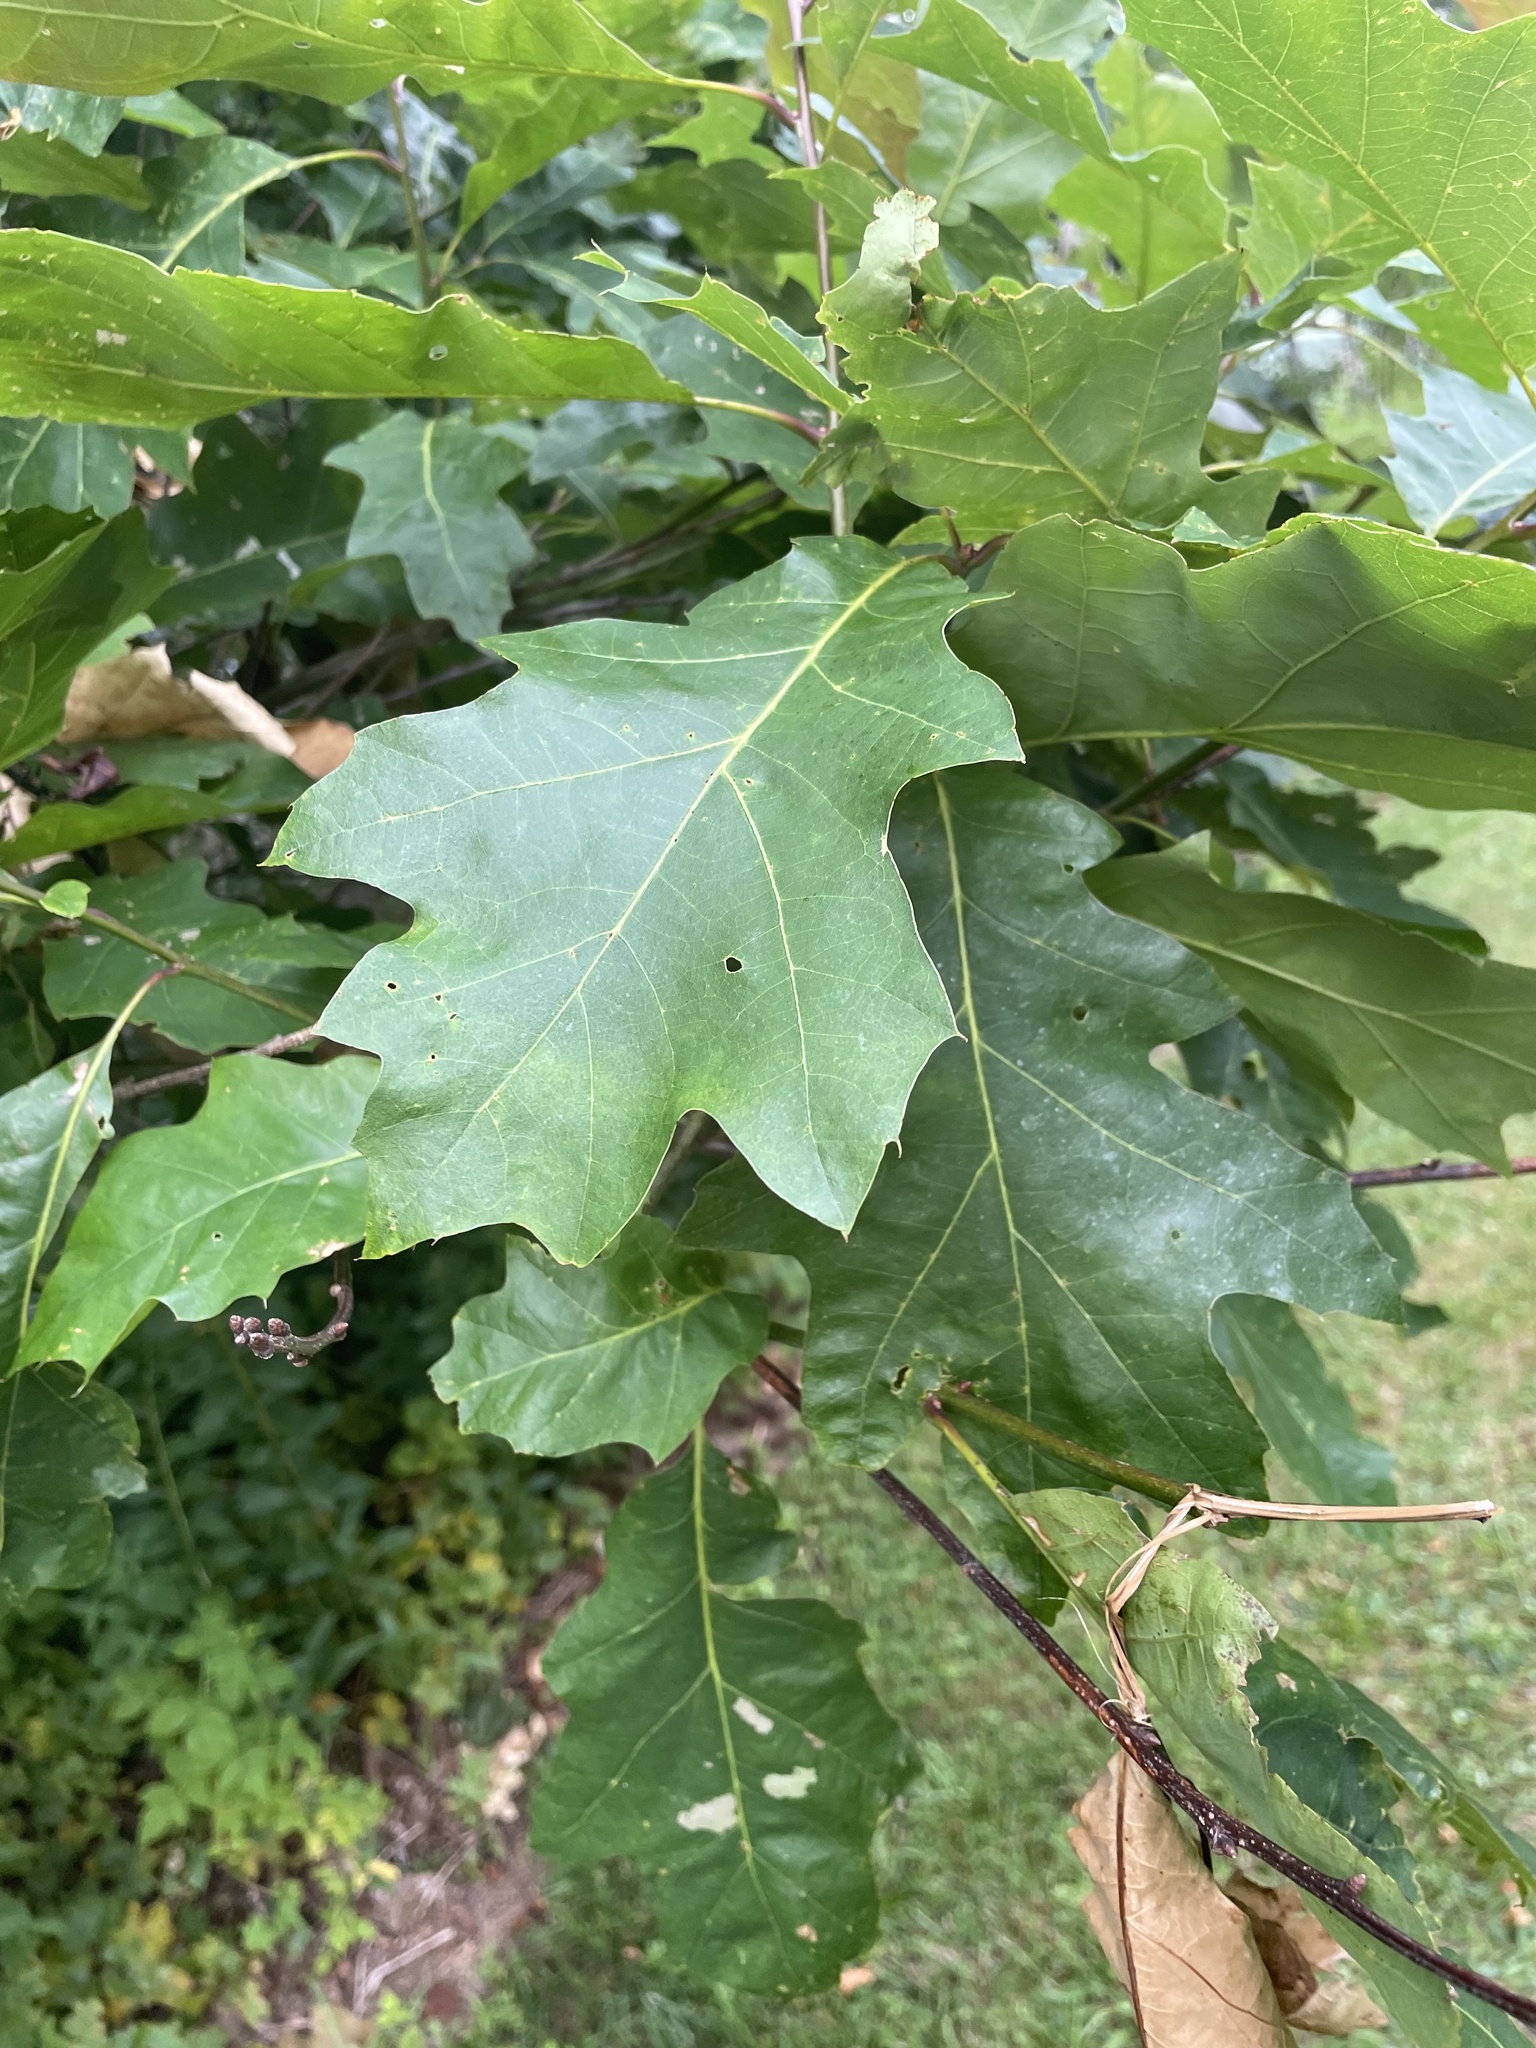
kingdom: Plantae
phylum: Tracheophyta
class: Magnoliopsida
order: Fagales
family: Fagaceae
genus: Quercus
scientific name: Quercus rubra
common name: Red oak
